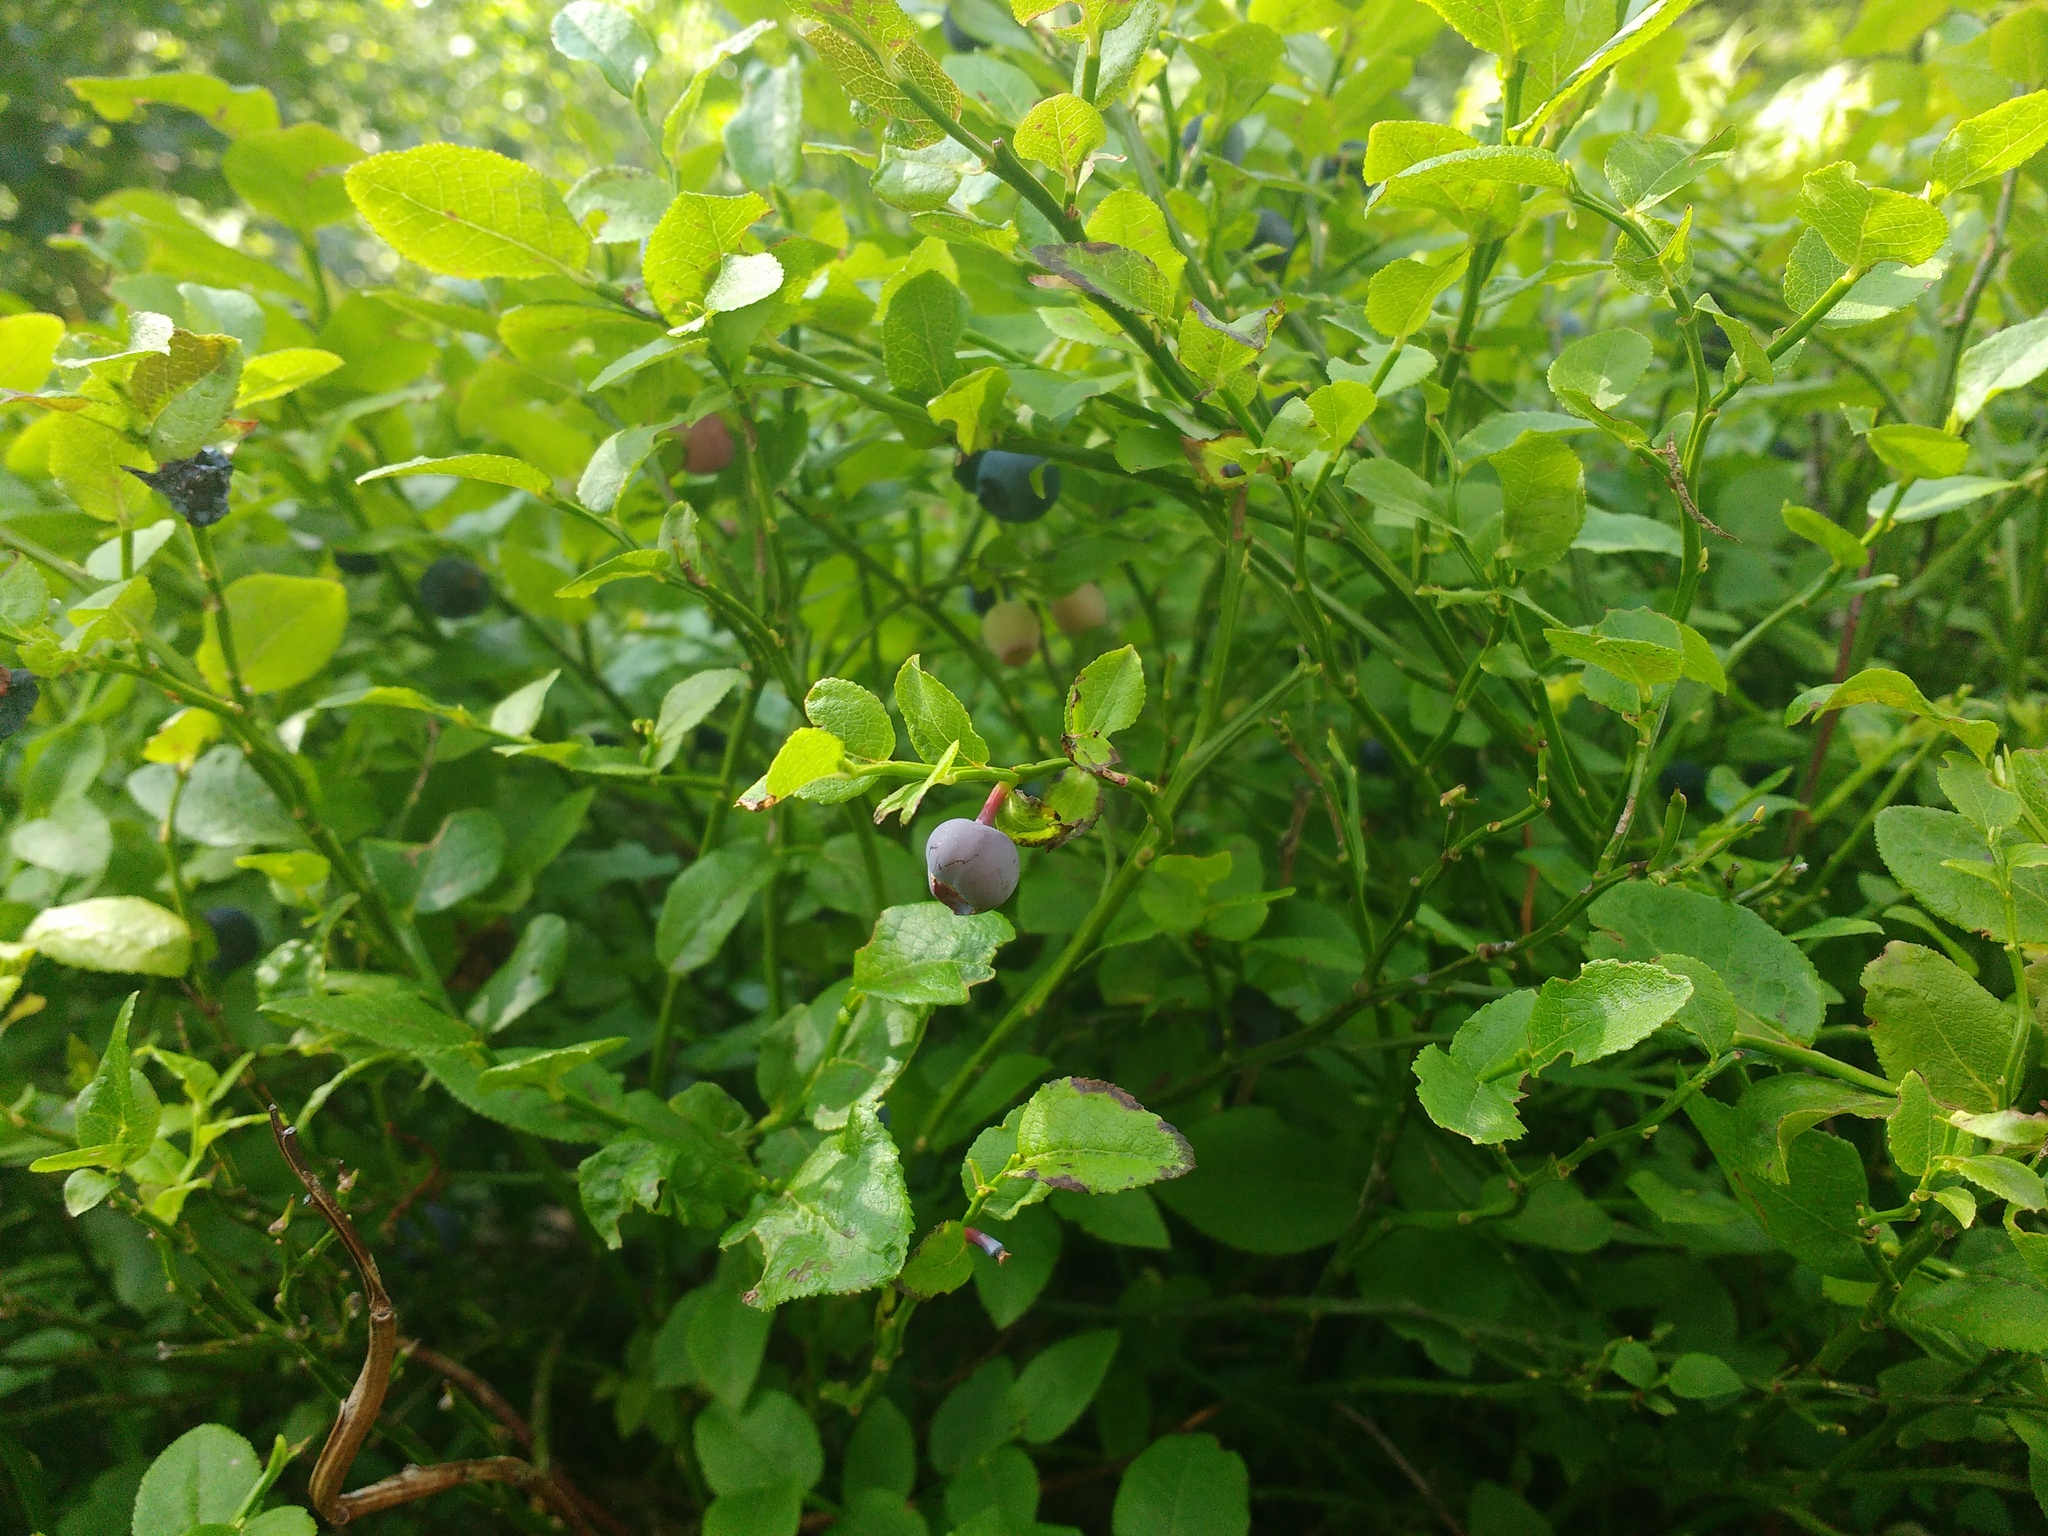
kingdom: Plantae
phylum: Tracheophyta
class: Magnoliopsida
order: Ericales
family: Ericaceae
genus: Vaccinium
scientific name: Vaccinium myrtillus
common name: Bilberry
